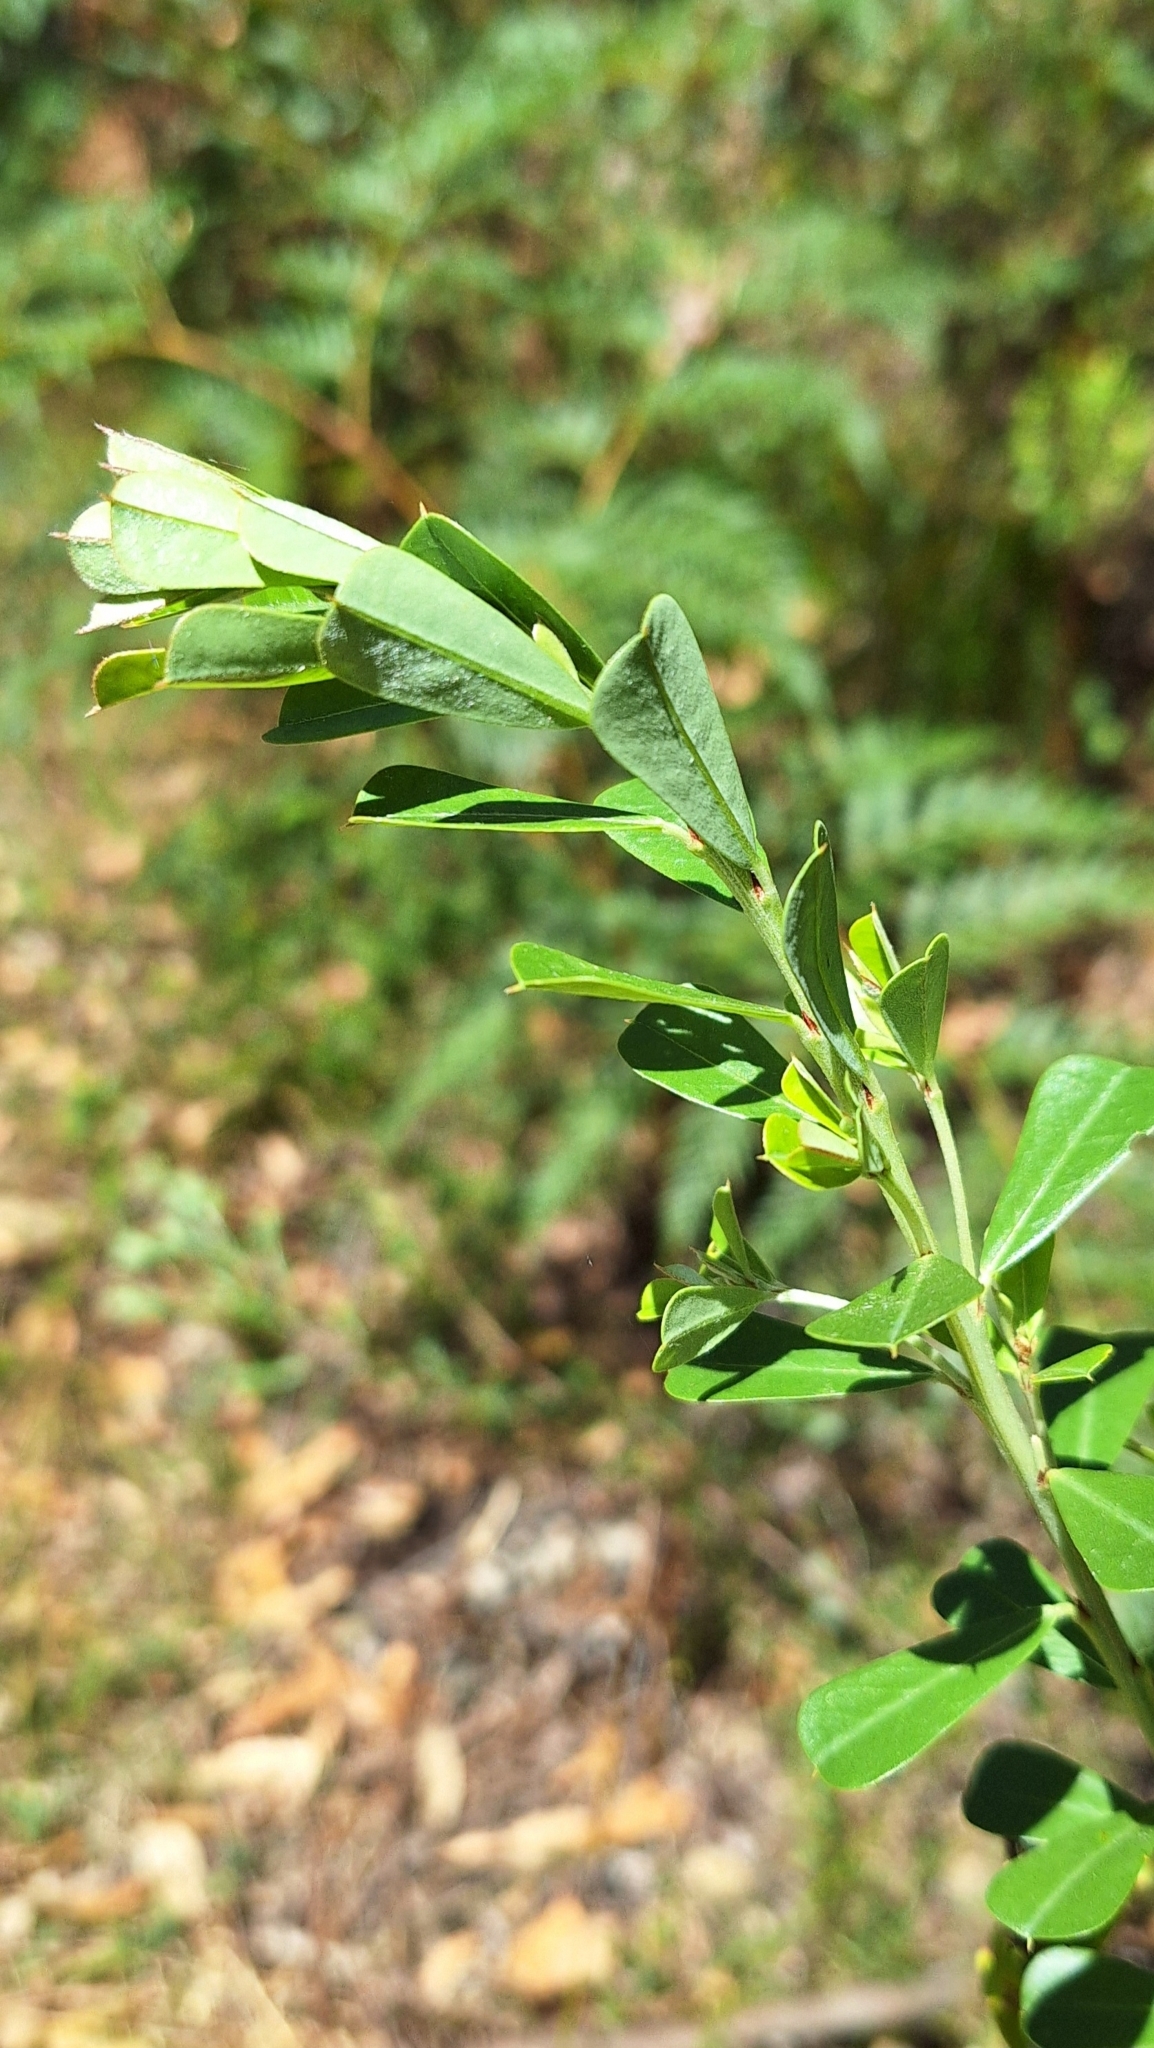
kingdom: Plantae
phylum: Tracheophyta
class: Magnoliopsida
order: Fabales
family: Fabaceae
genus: Pultenaea
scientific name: Pultenaea daphnoides
